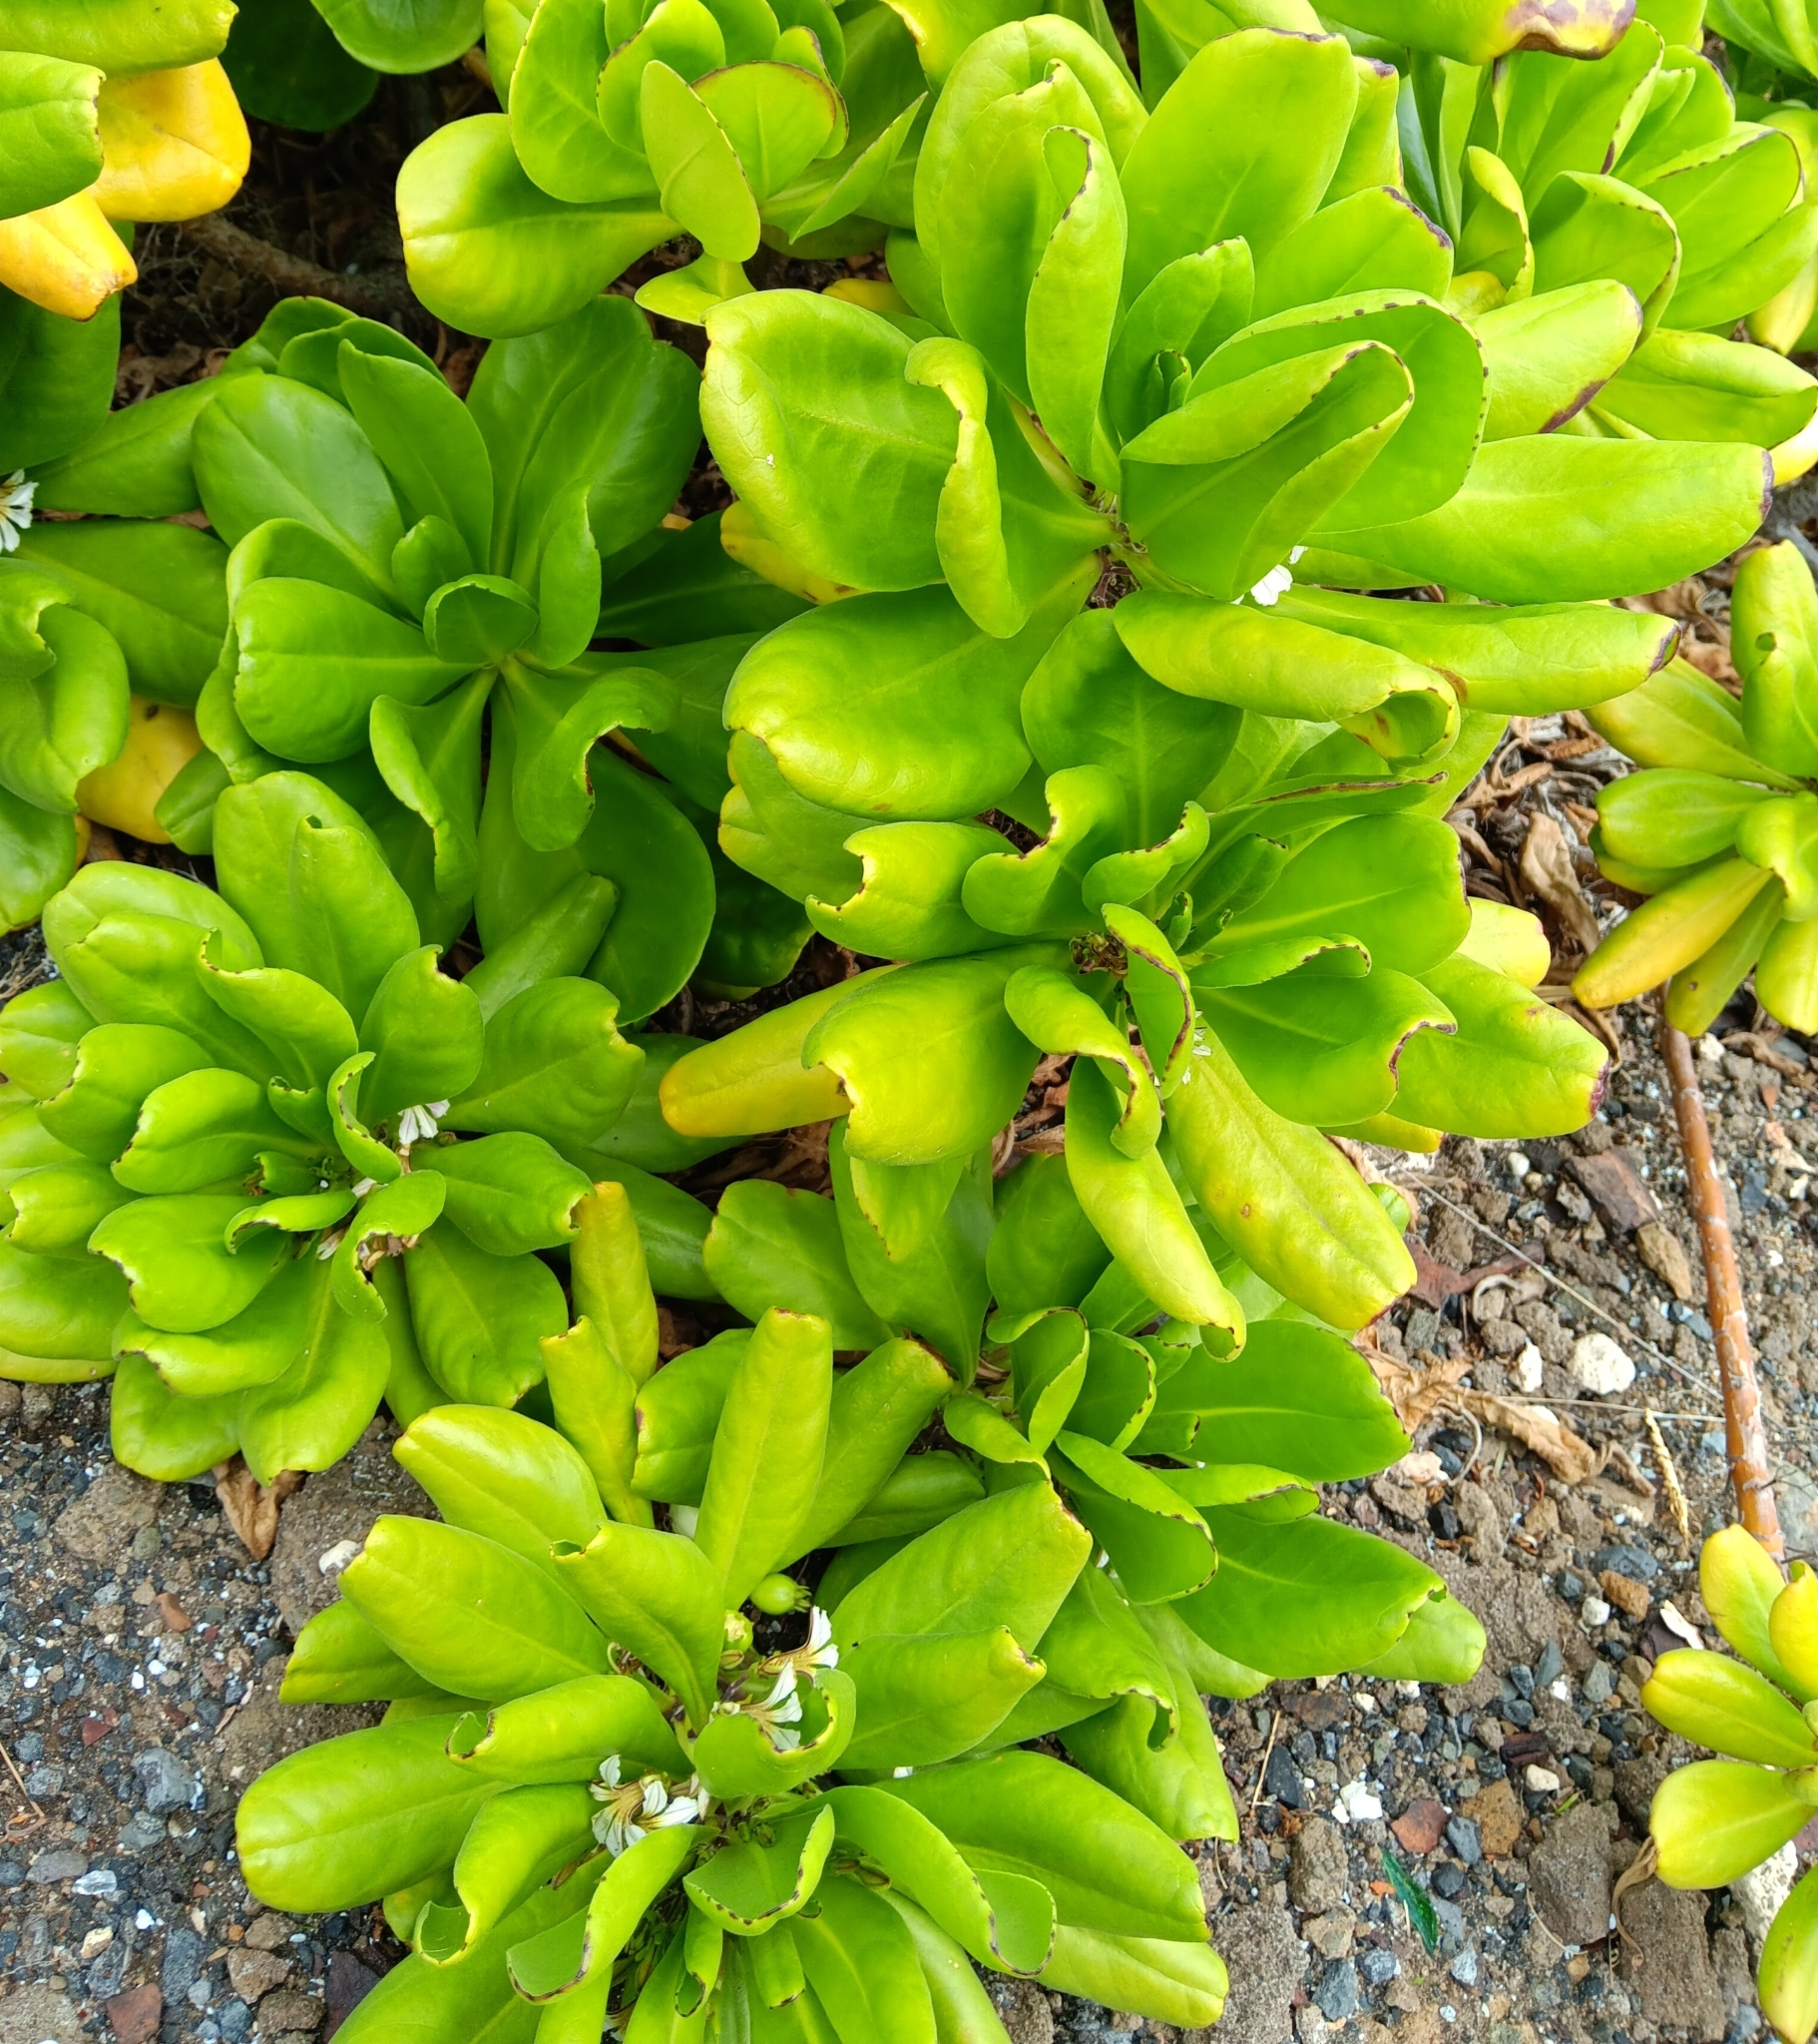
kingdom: Plantae
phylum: Tracheophyta
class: Magnoliopsida
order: Asterales
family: Goodeniaceae
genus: Scaevola
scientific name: Scaevola taccada
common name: Sea lettucetree
